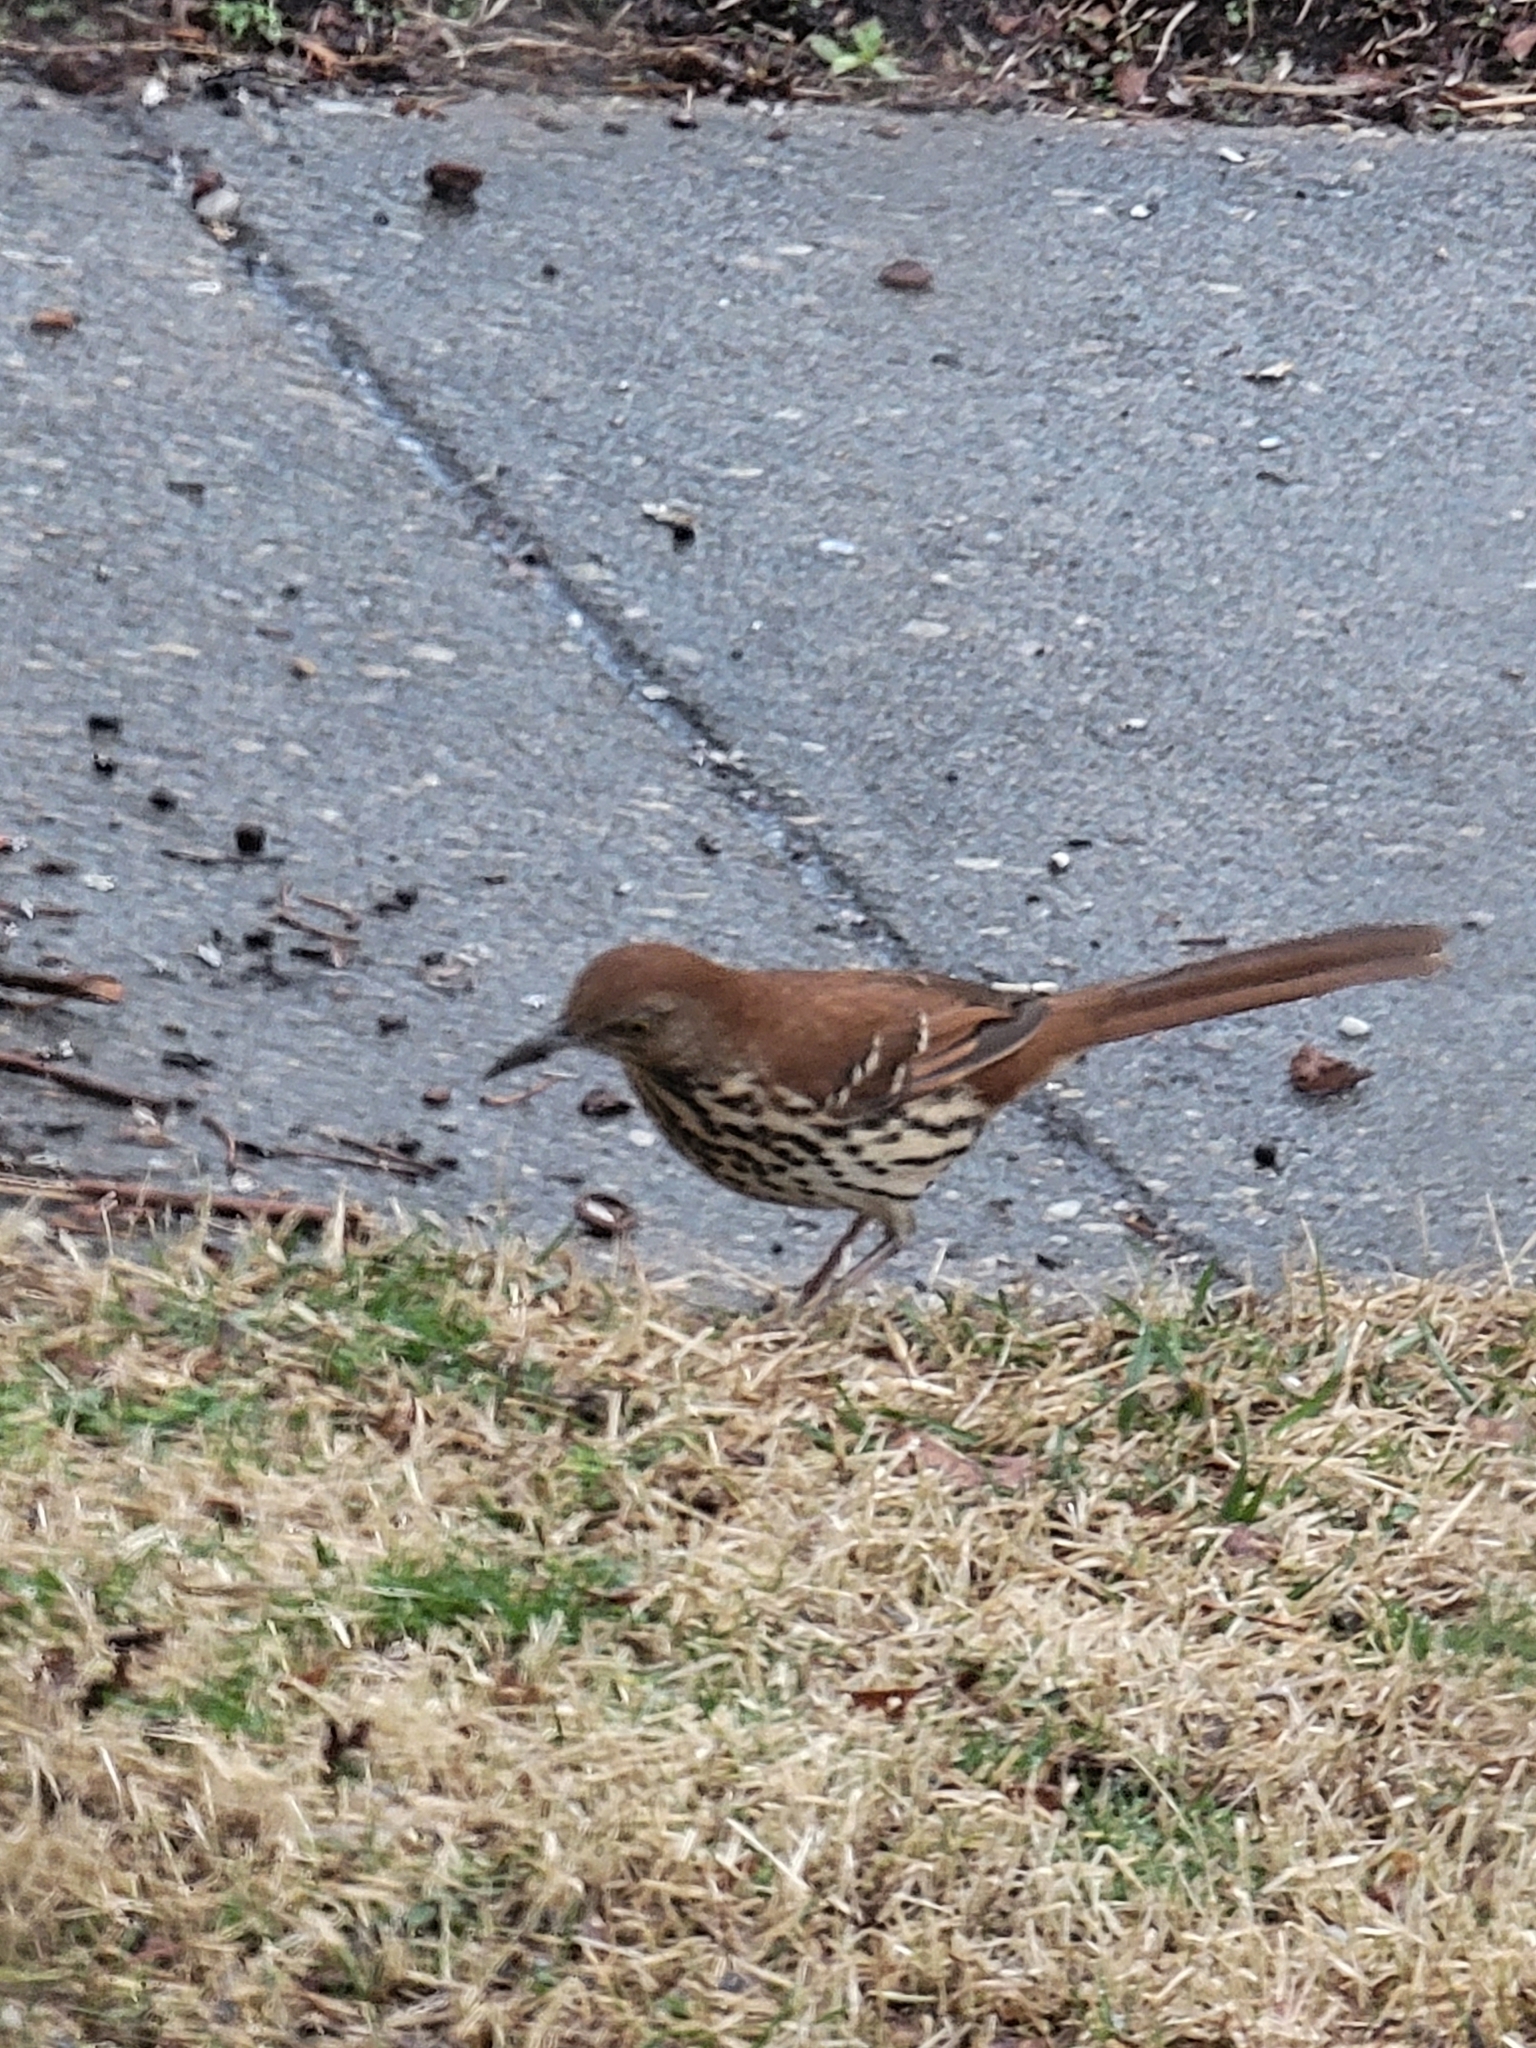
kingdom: Animalia
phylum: Chordata
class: Aves
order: Passeriformes
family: Mimidae
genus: Toxostoma
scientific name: Toxostoma rufum
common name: Brown thrasher
